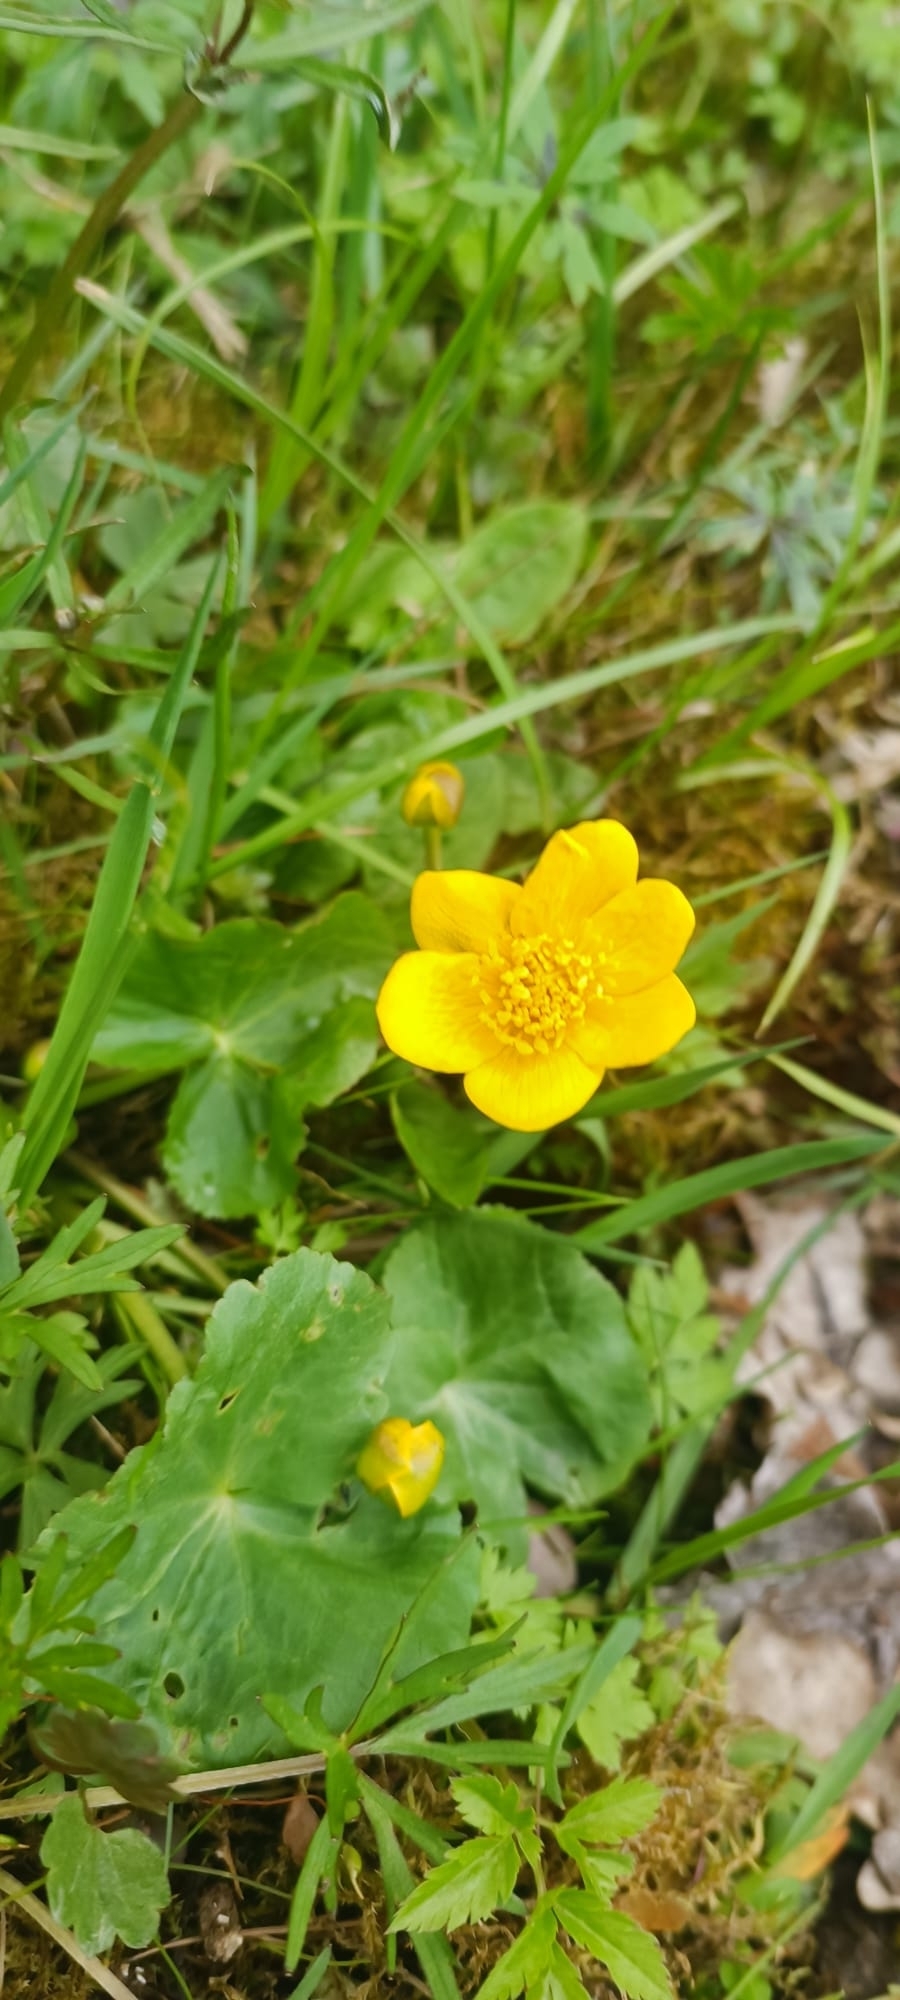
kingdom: Plantae
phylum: Tracheophyta
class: Magnoliopsida
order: Ranunculales
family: Ranunculaceae
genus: Caltha
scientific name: Caltha palustris
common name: Marsh marigold
